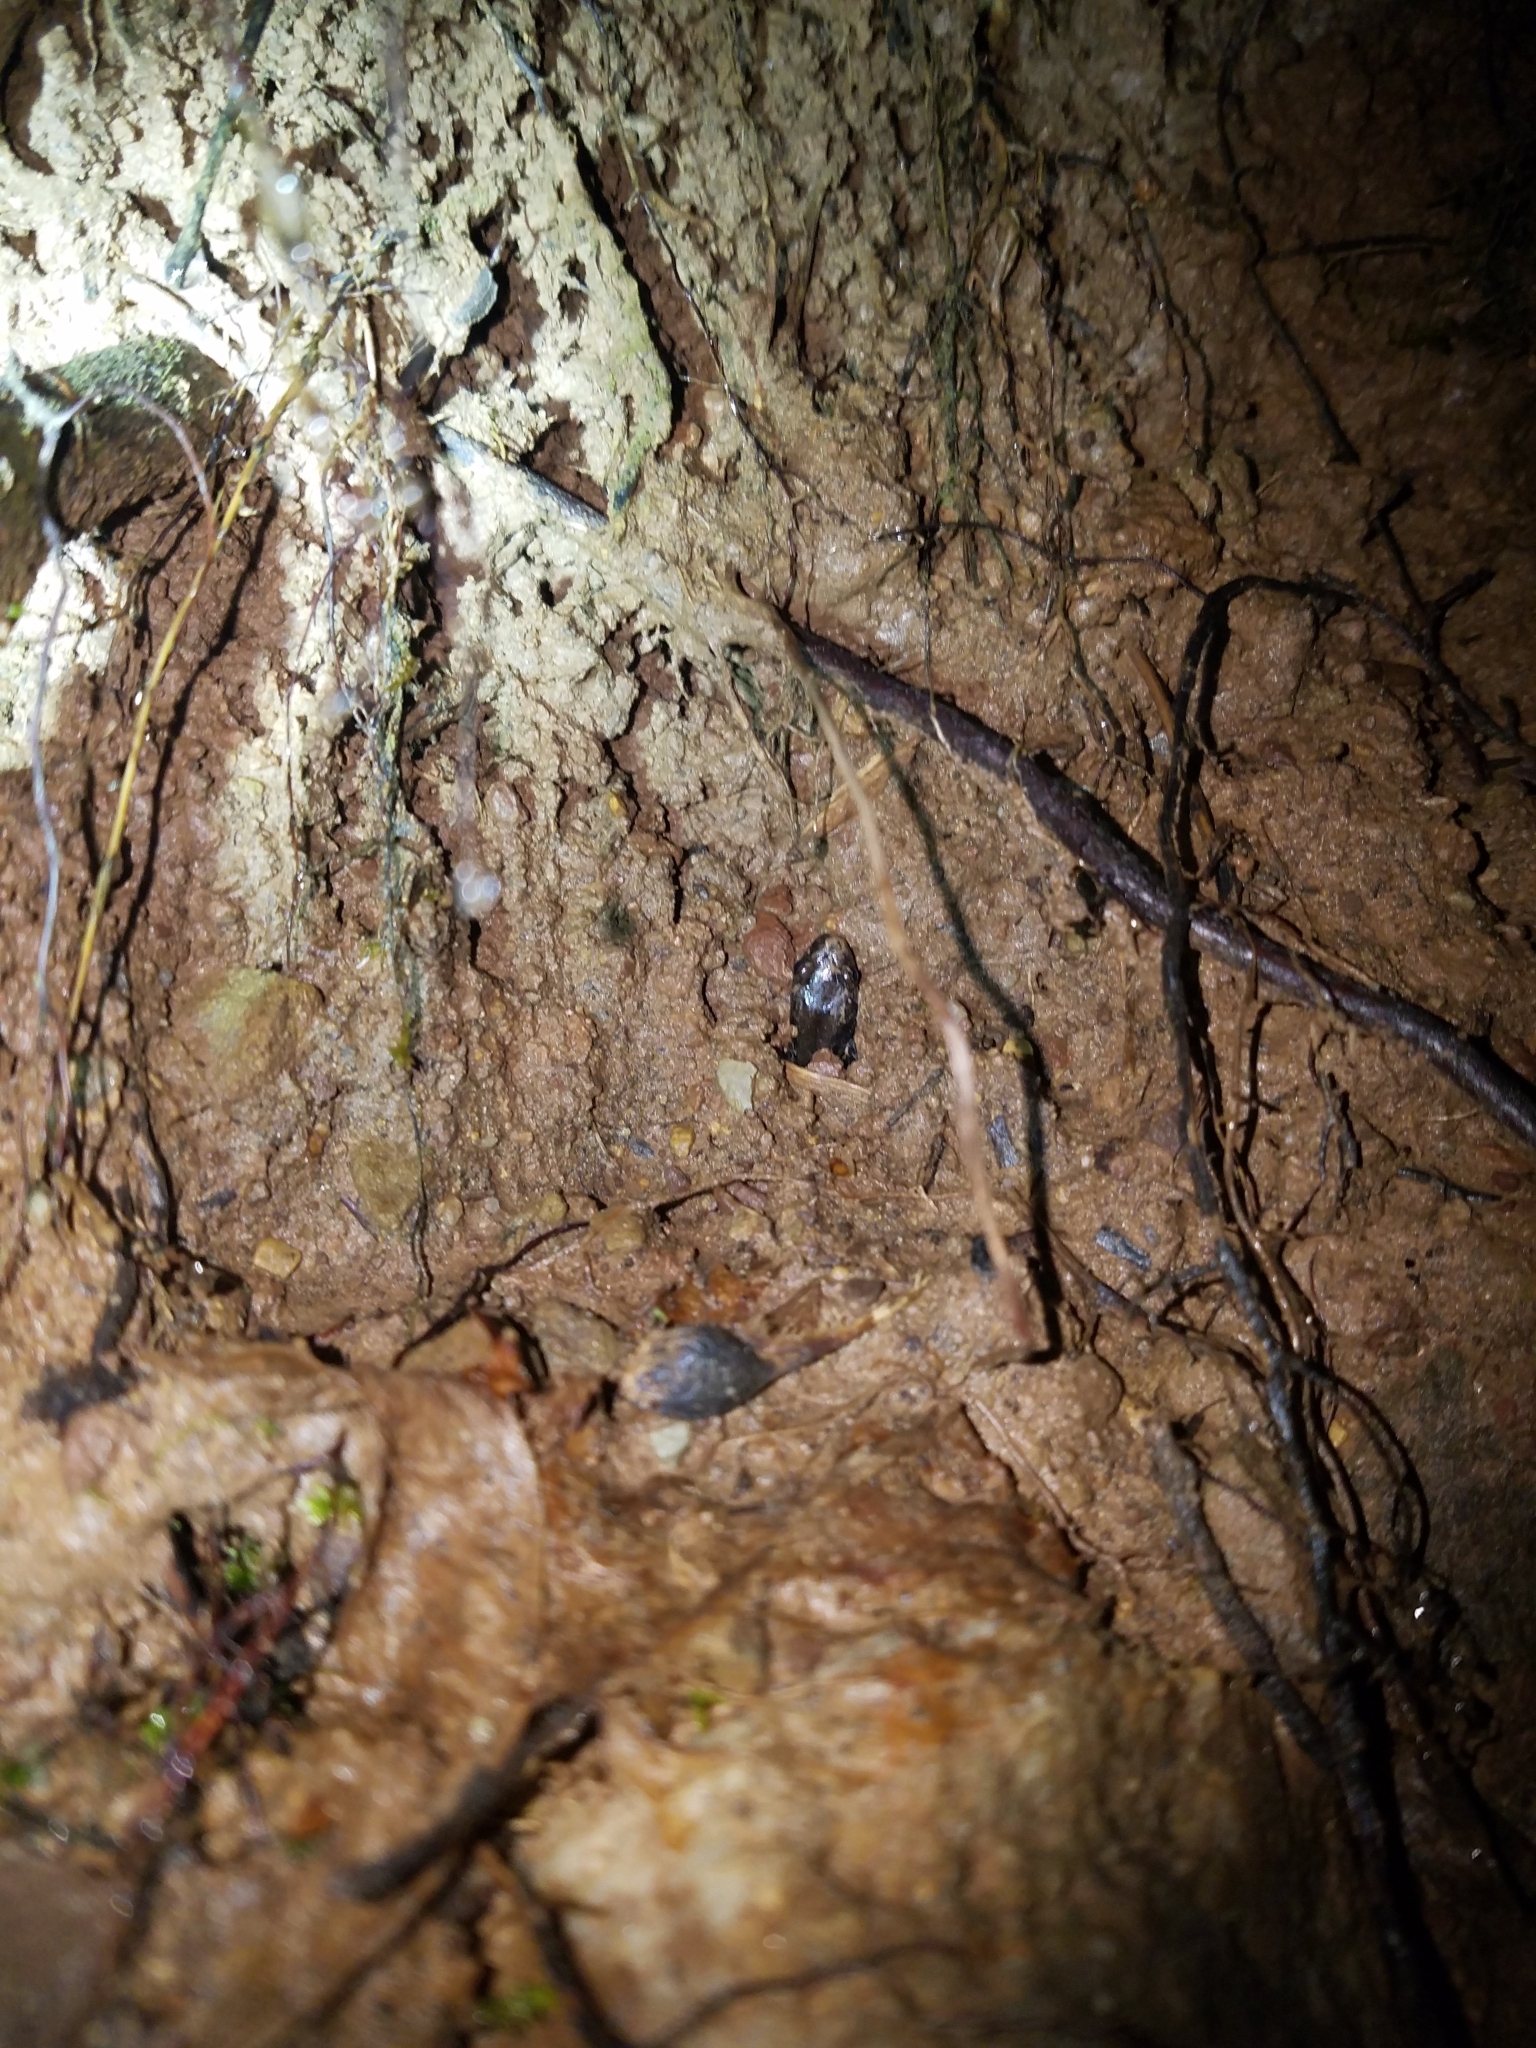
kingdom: Animalia
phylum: Chordata
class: Amphibia
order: Caudata
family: Plethodontidae
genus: Desmognathus
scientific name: Desmognathus ochrophaeus
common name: Allegheny mountain dusky salamander
